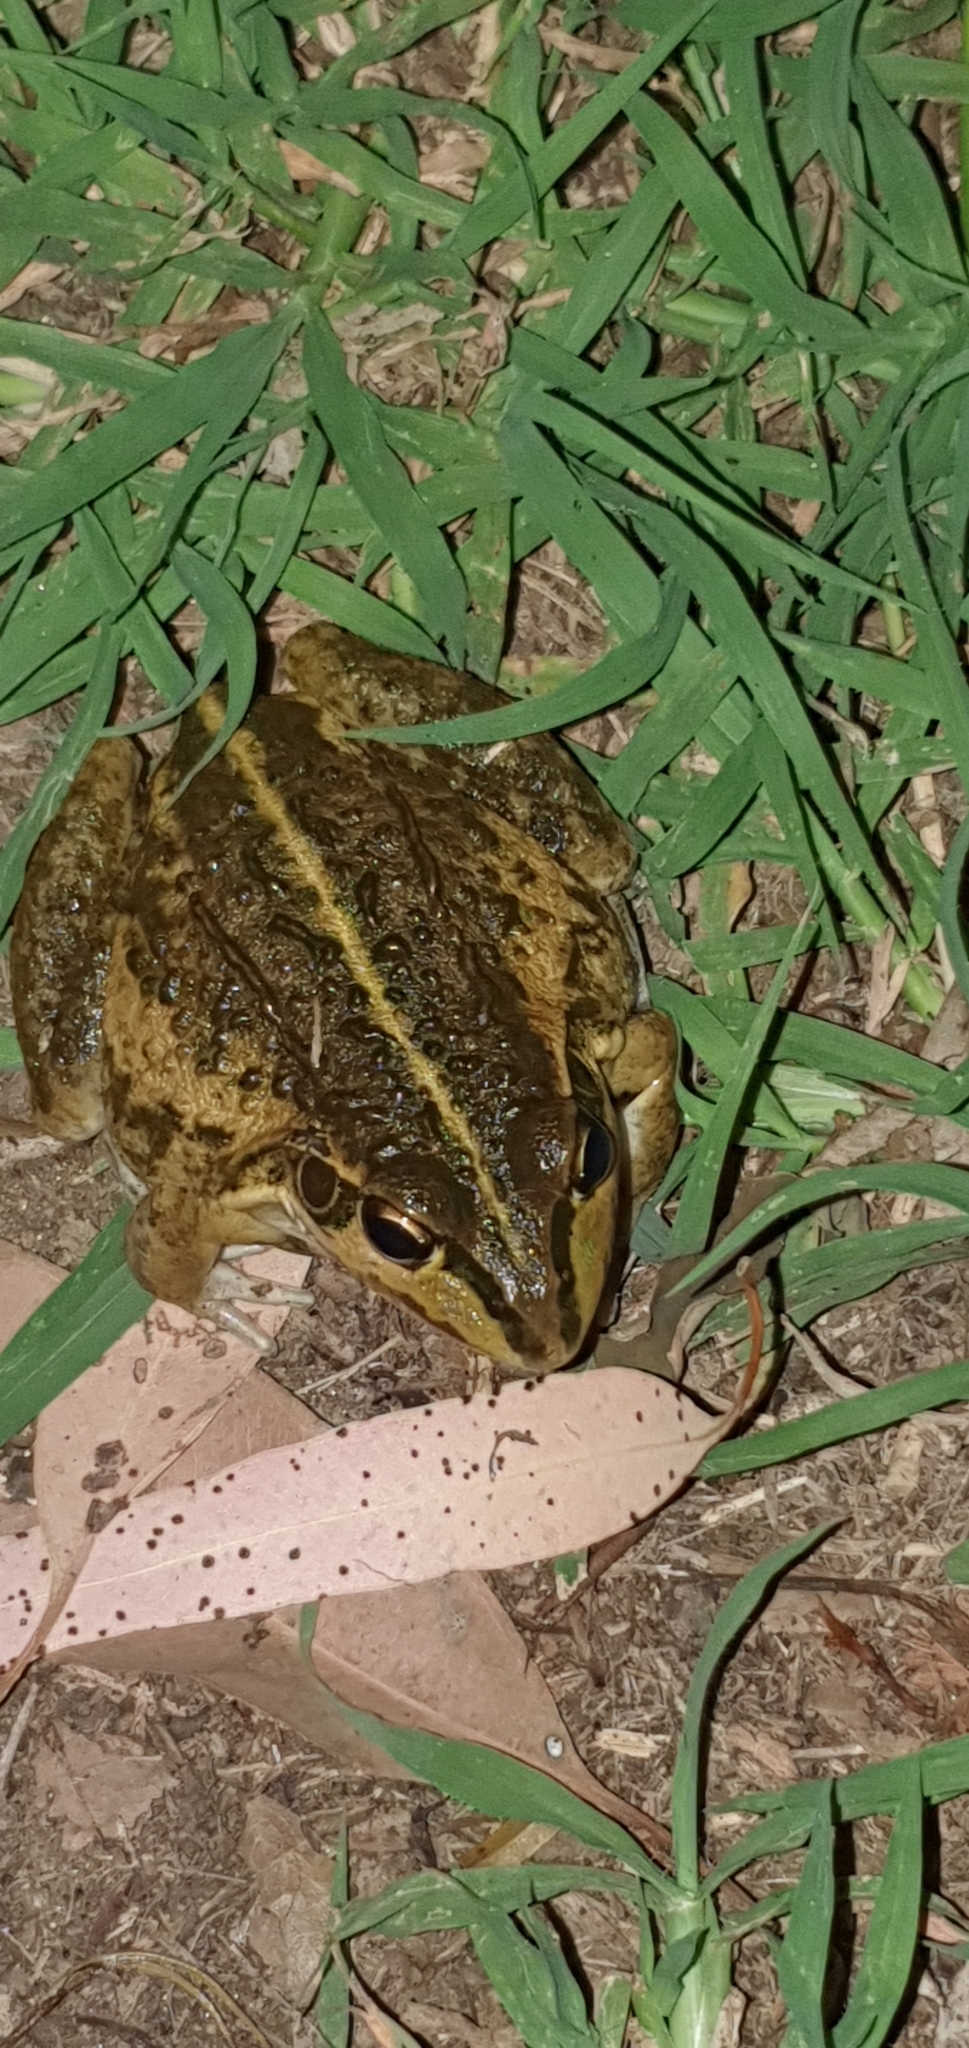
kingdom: Animalia
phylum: Chordata
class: Amphibia
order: Anura
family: Pelodryadidae
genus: Ranoidea
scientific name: Ranoidea alboguttata
